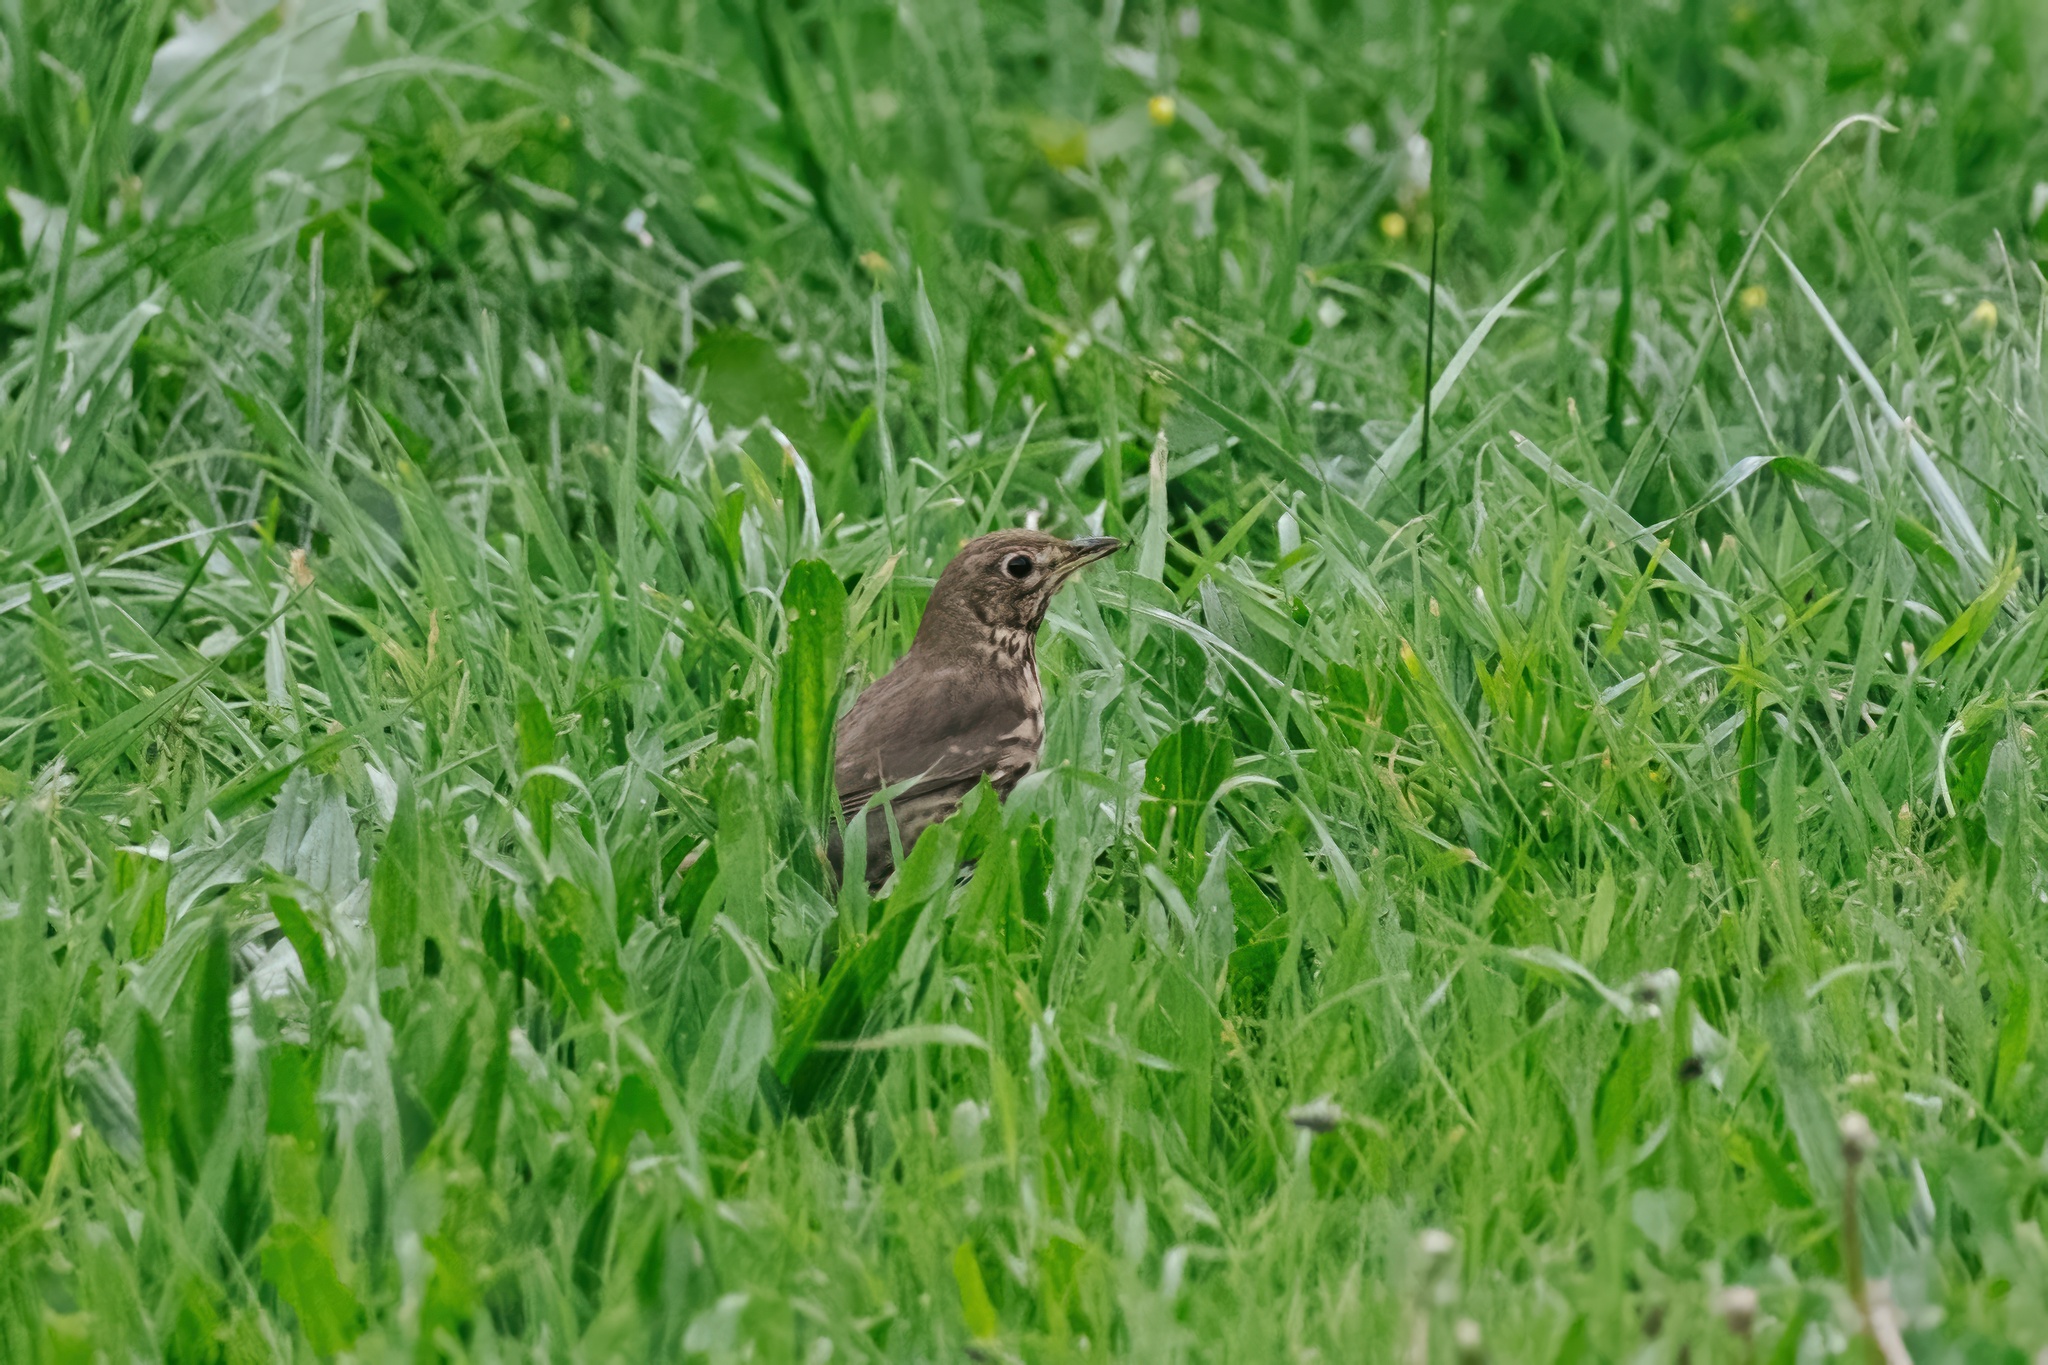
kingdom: Animalia
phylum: Chordata
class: Aves
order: Passeriformes
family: Turdidae
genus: Turdus
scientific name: Turdus philomelos
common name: Song thrush
